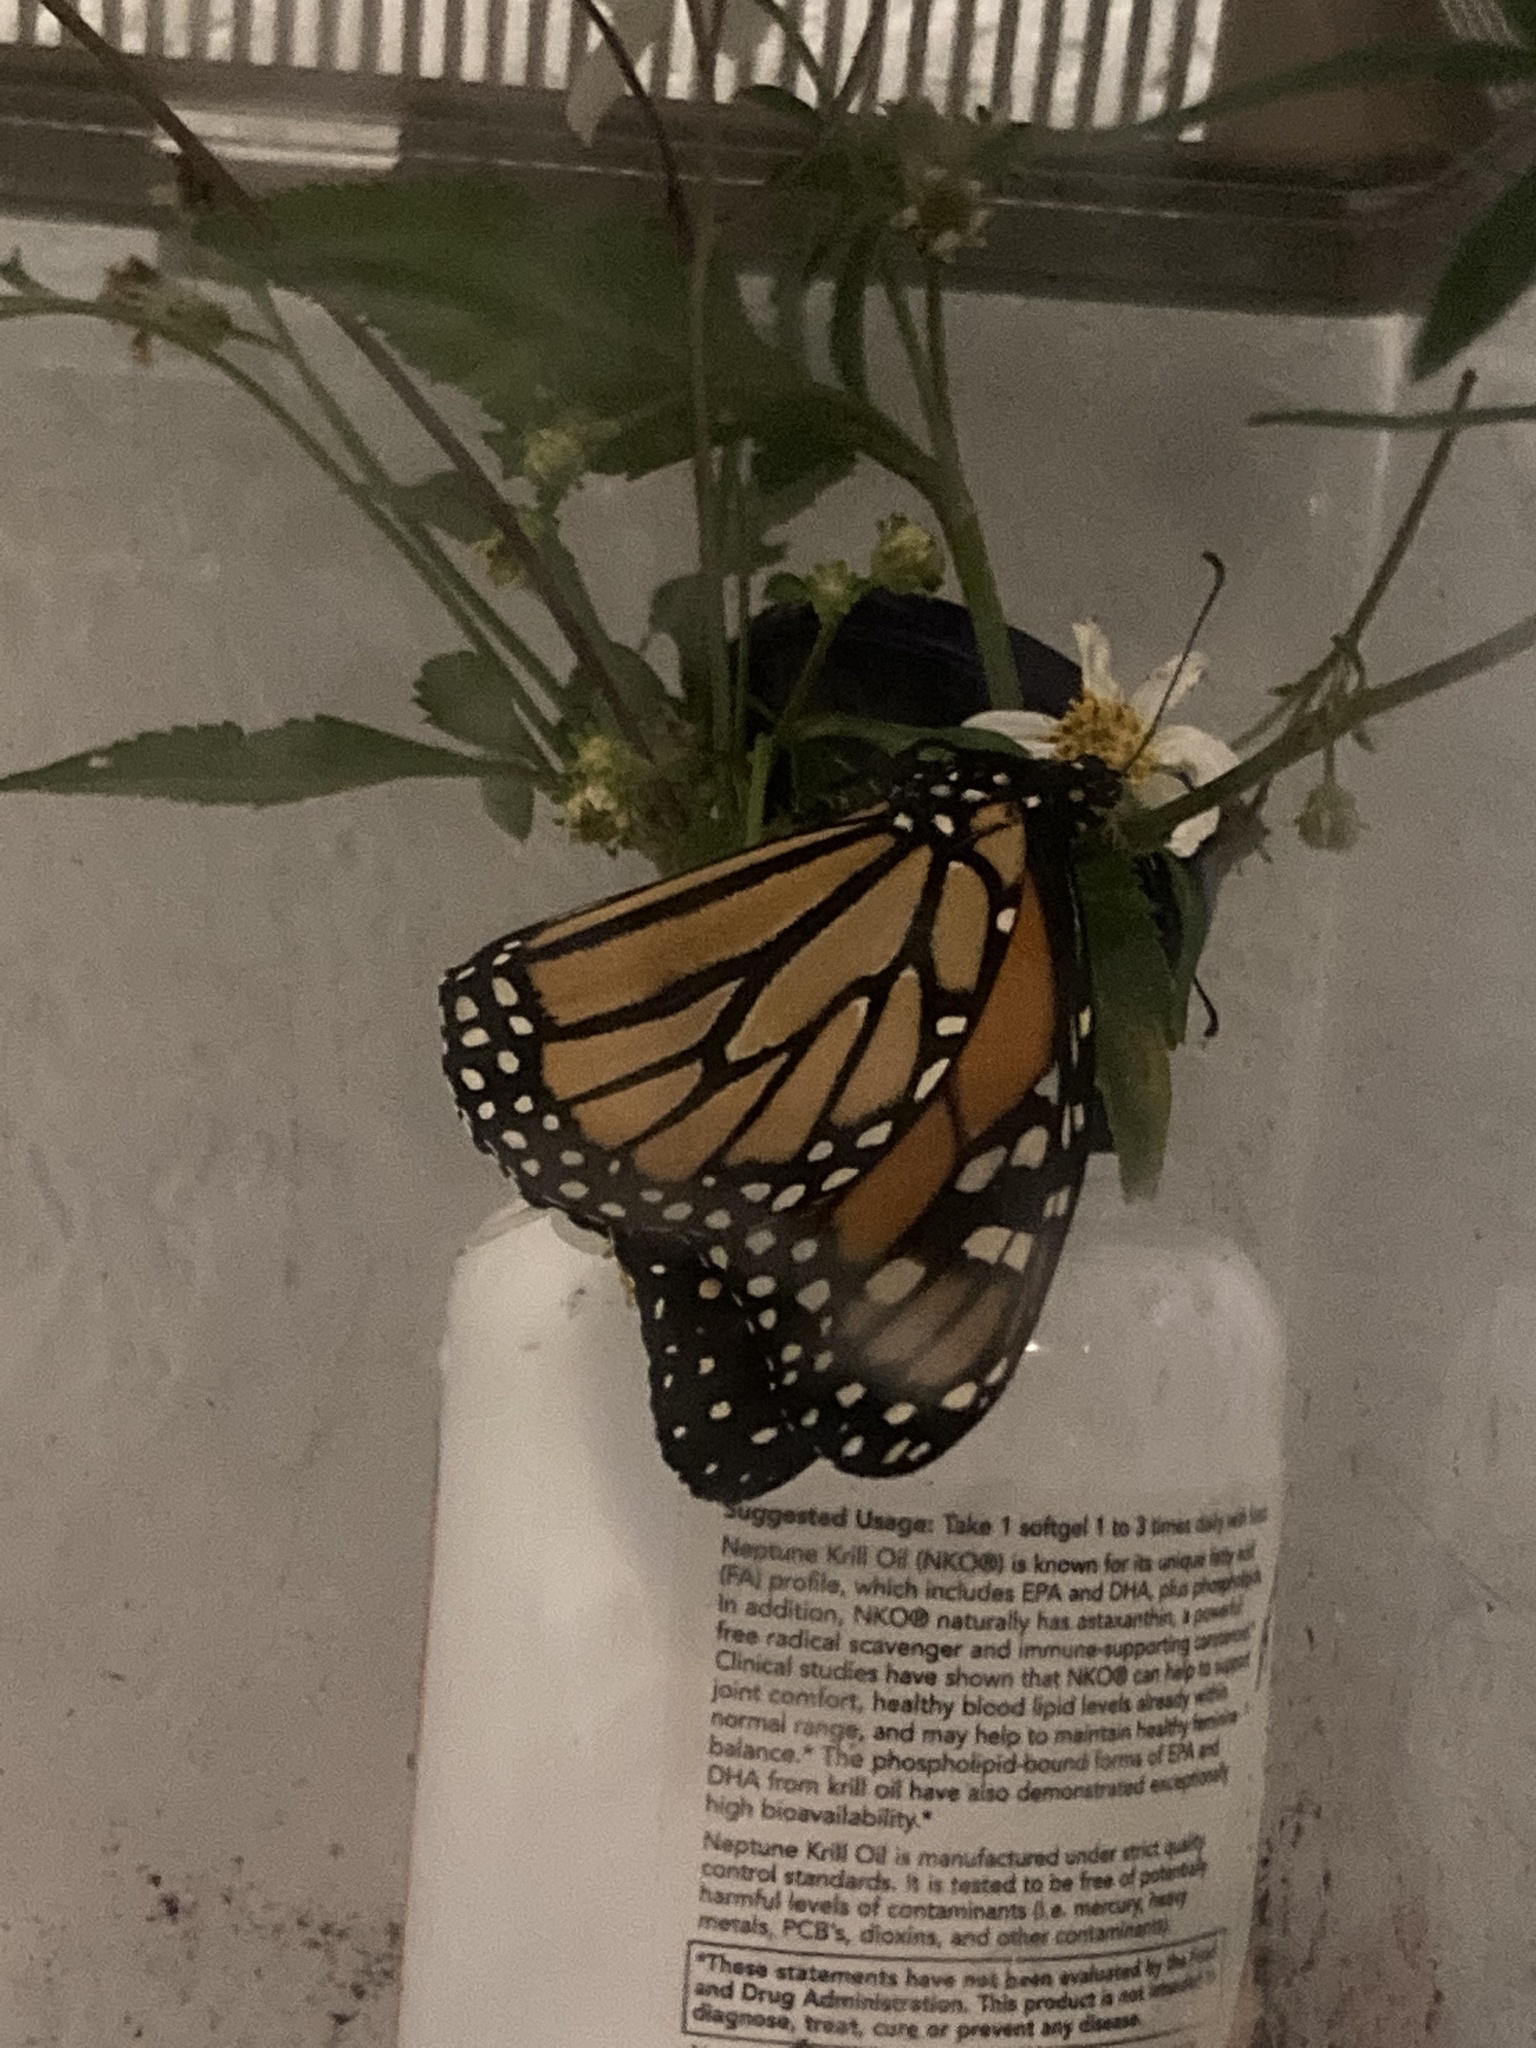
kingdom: Animalia
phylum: Arthropoda
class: Insecta
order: Lepidoptera
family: Nymphalidae
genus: Danaus
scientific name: Danaus plexippus
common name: Monarch
